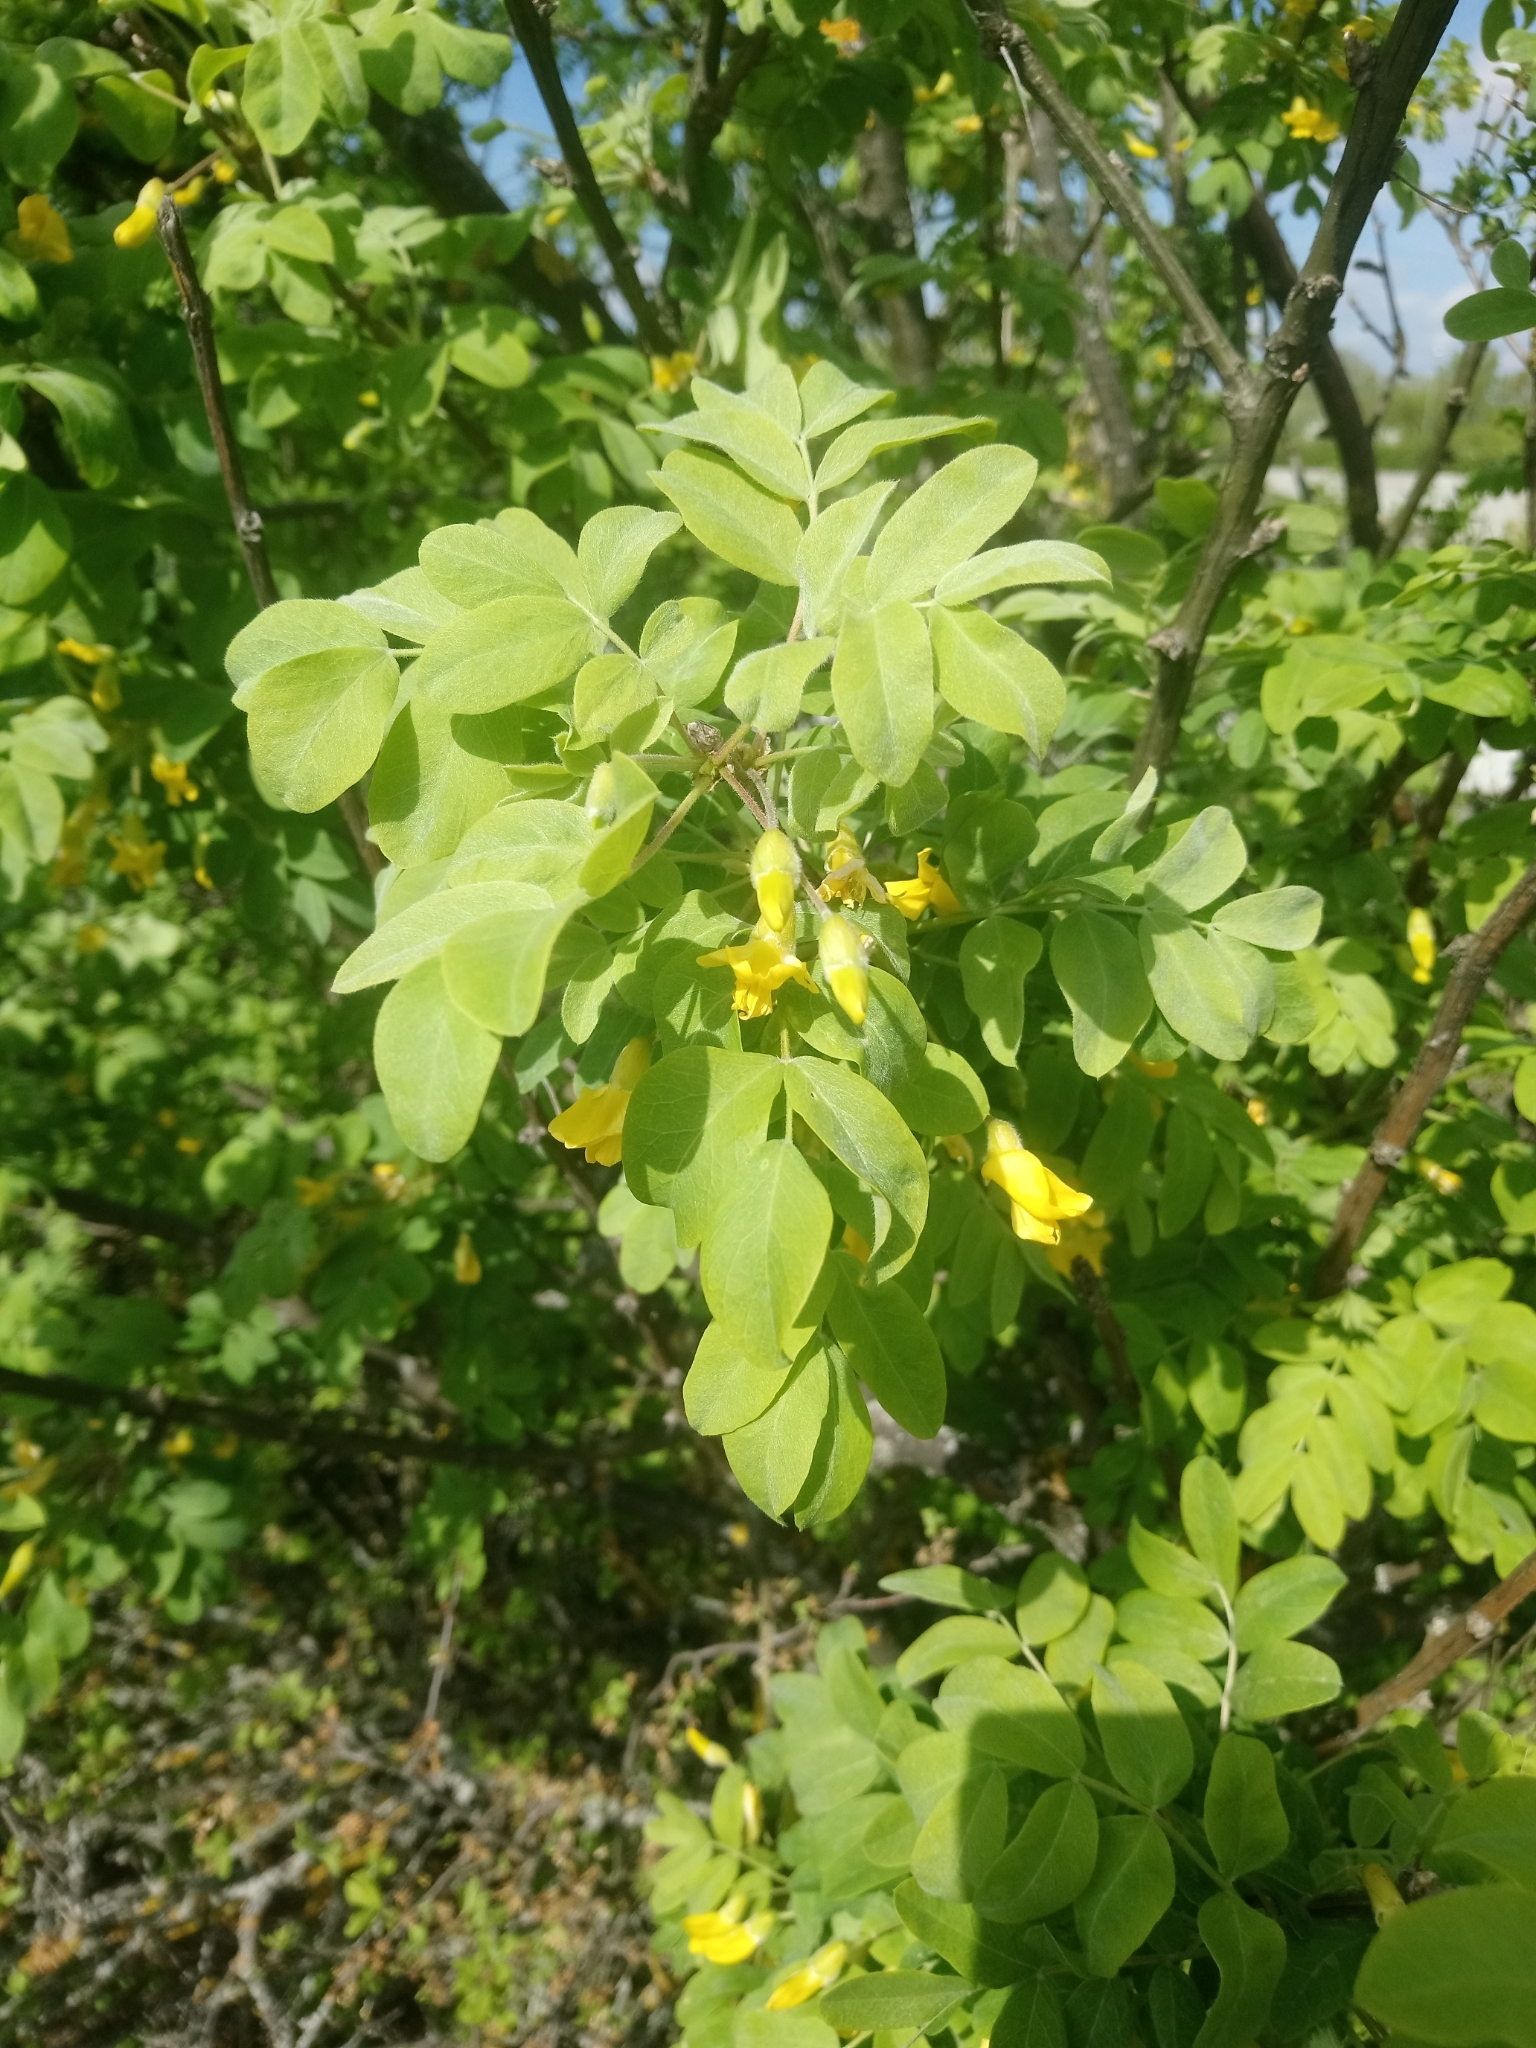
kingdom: Plantae
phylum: Tracheophyta
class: Magnoliopsida
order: Fabales
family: Fabaceae
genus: Caragana
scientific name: Caragana arborescens
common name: Siberian peashrub
